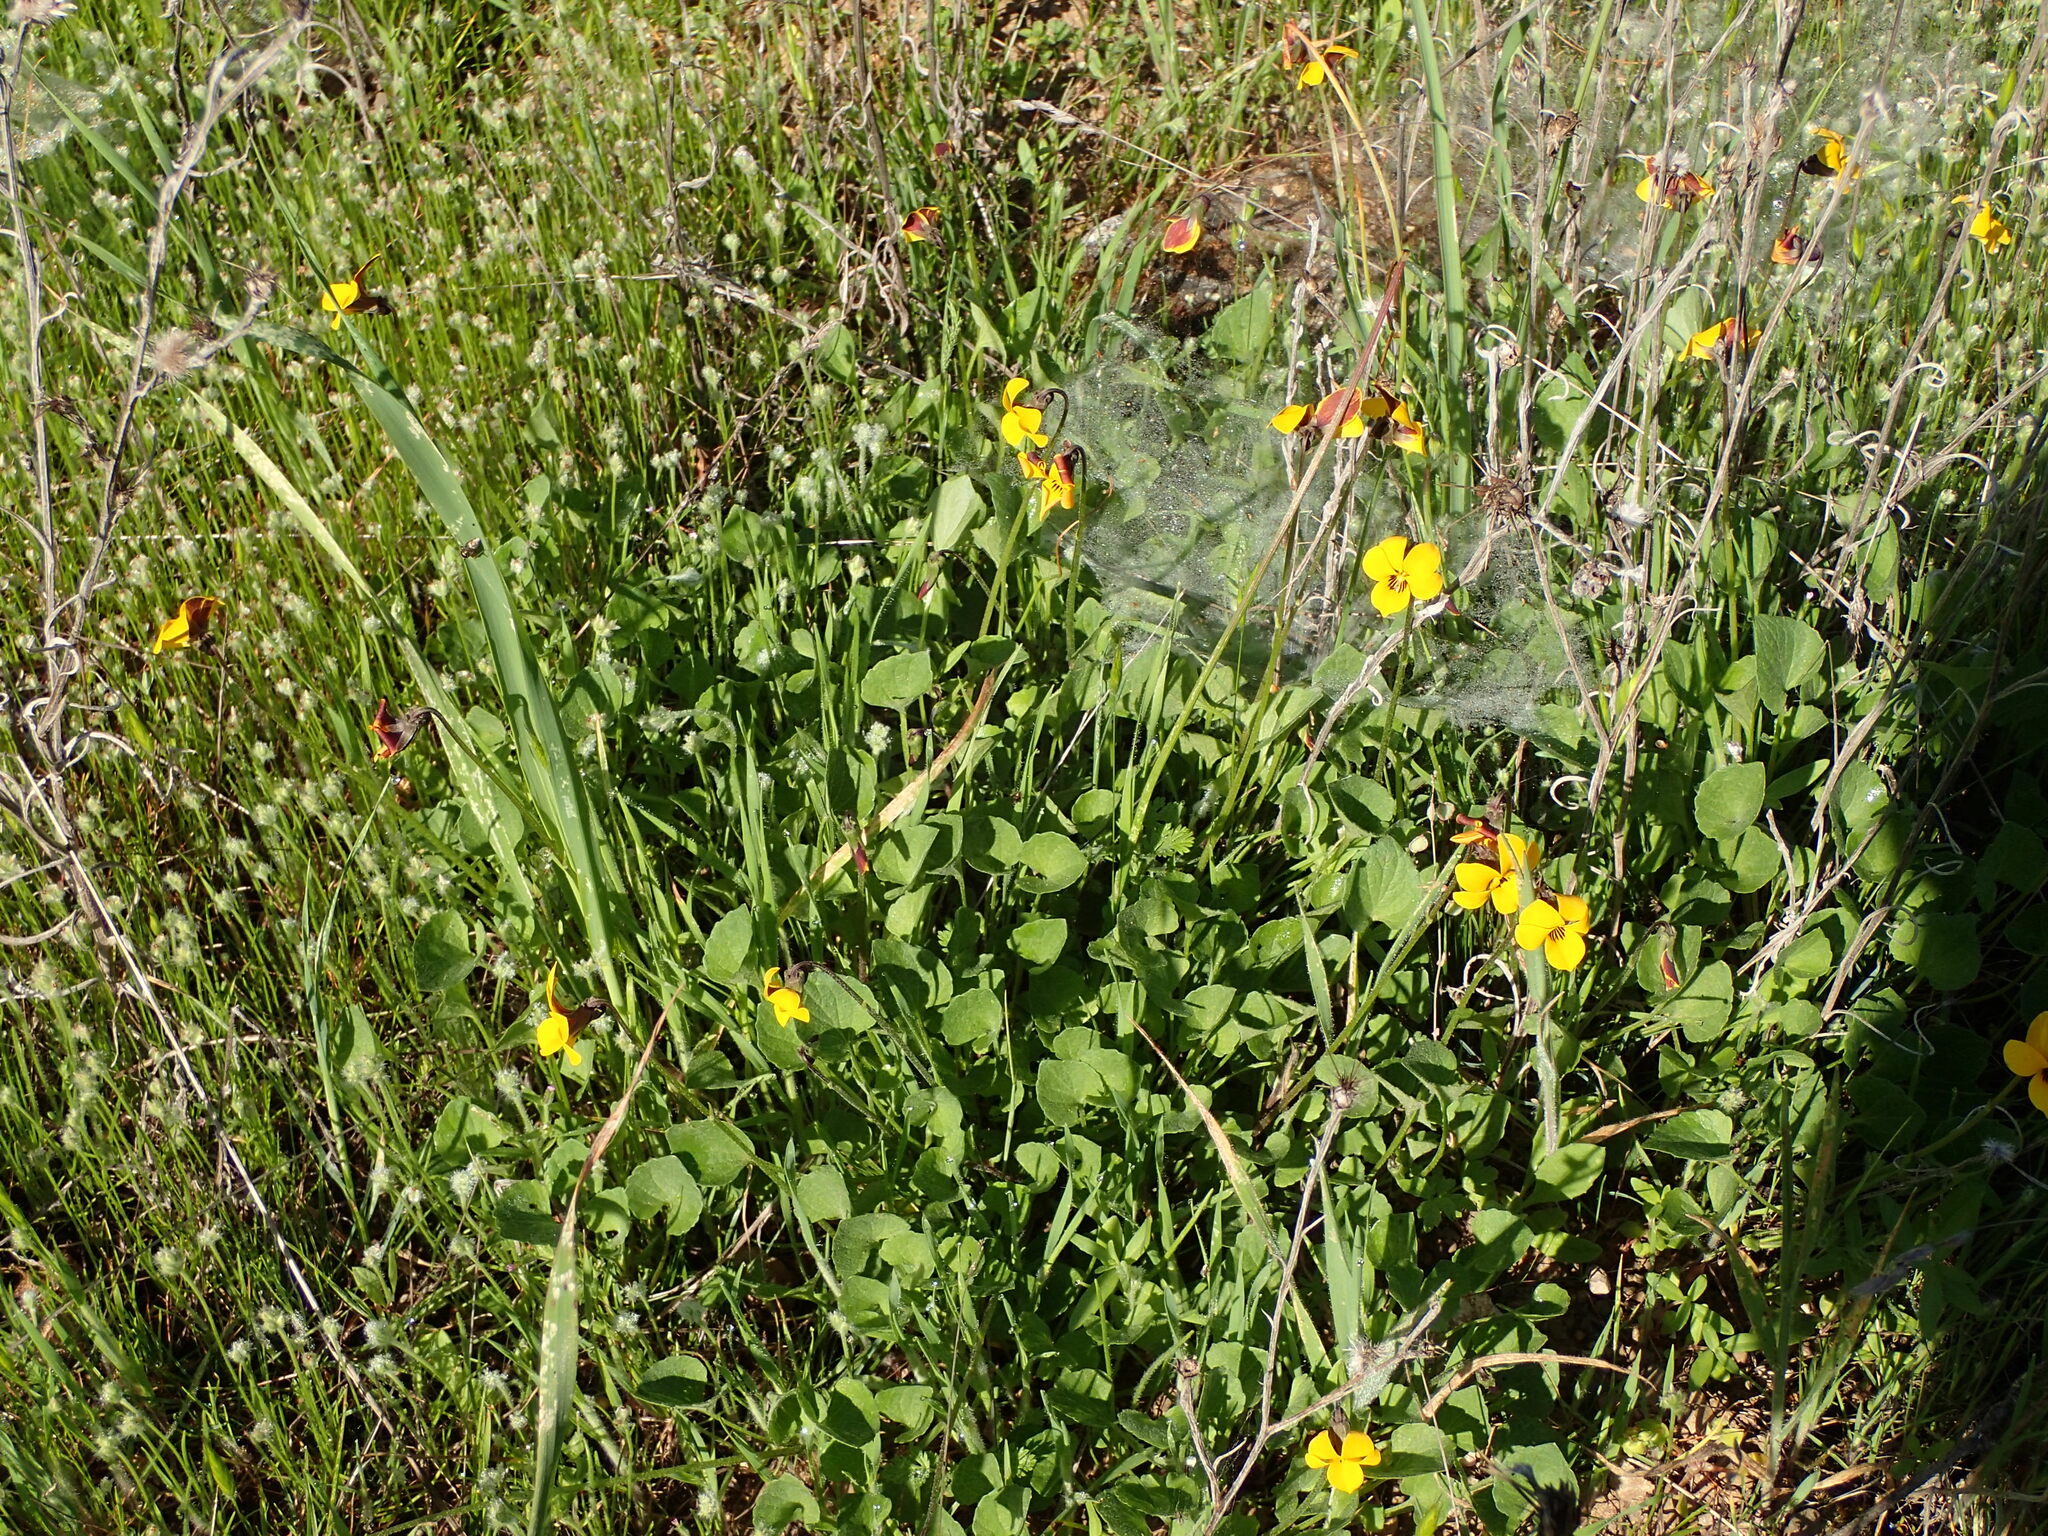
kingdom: Plantae
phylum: Tracheophyta
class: Magnoliopsida
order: Malpighiales
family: Violaceae
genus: Viola
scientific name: Viola pedunculata
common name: California golden violet
